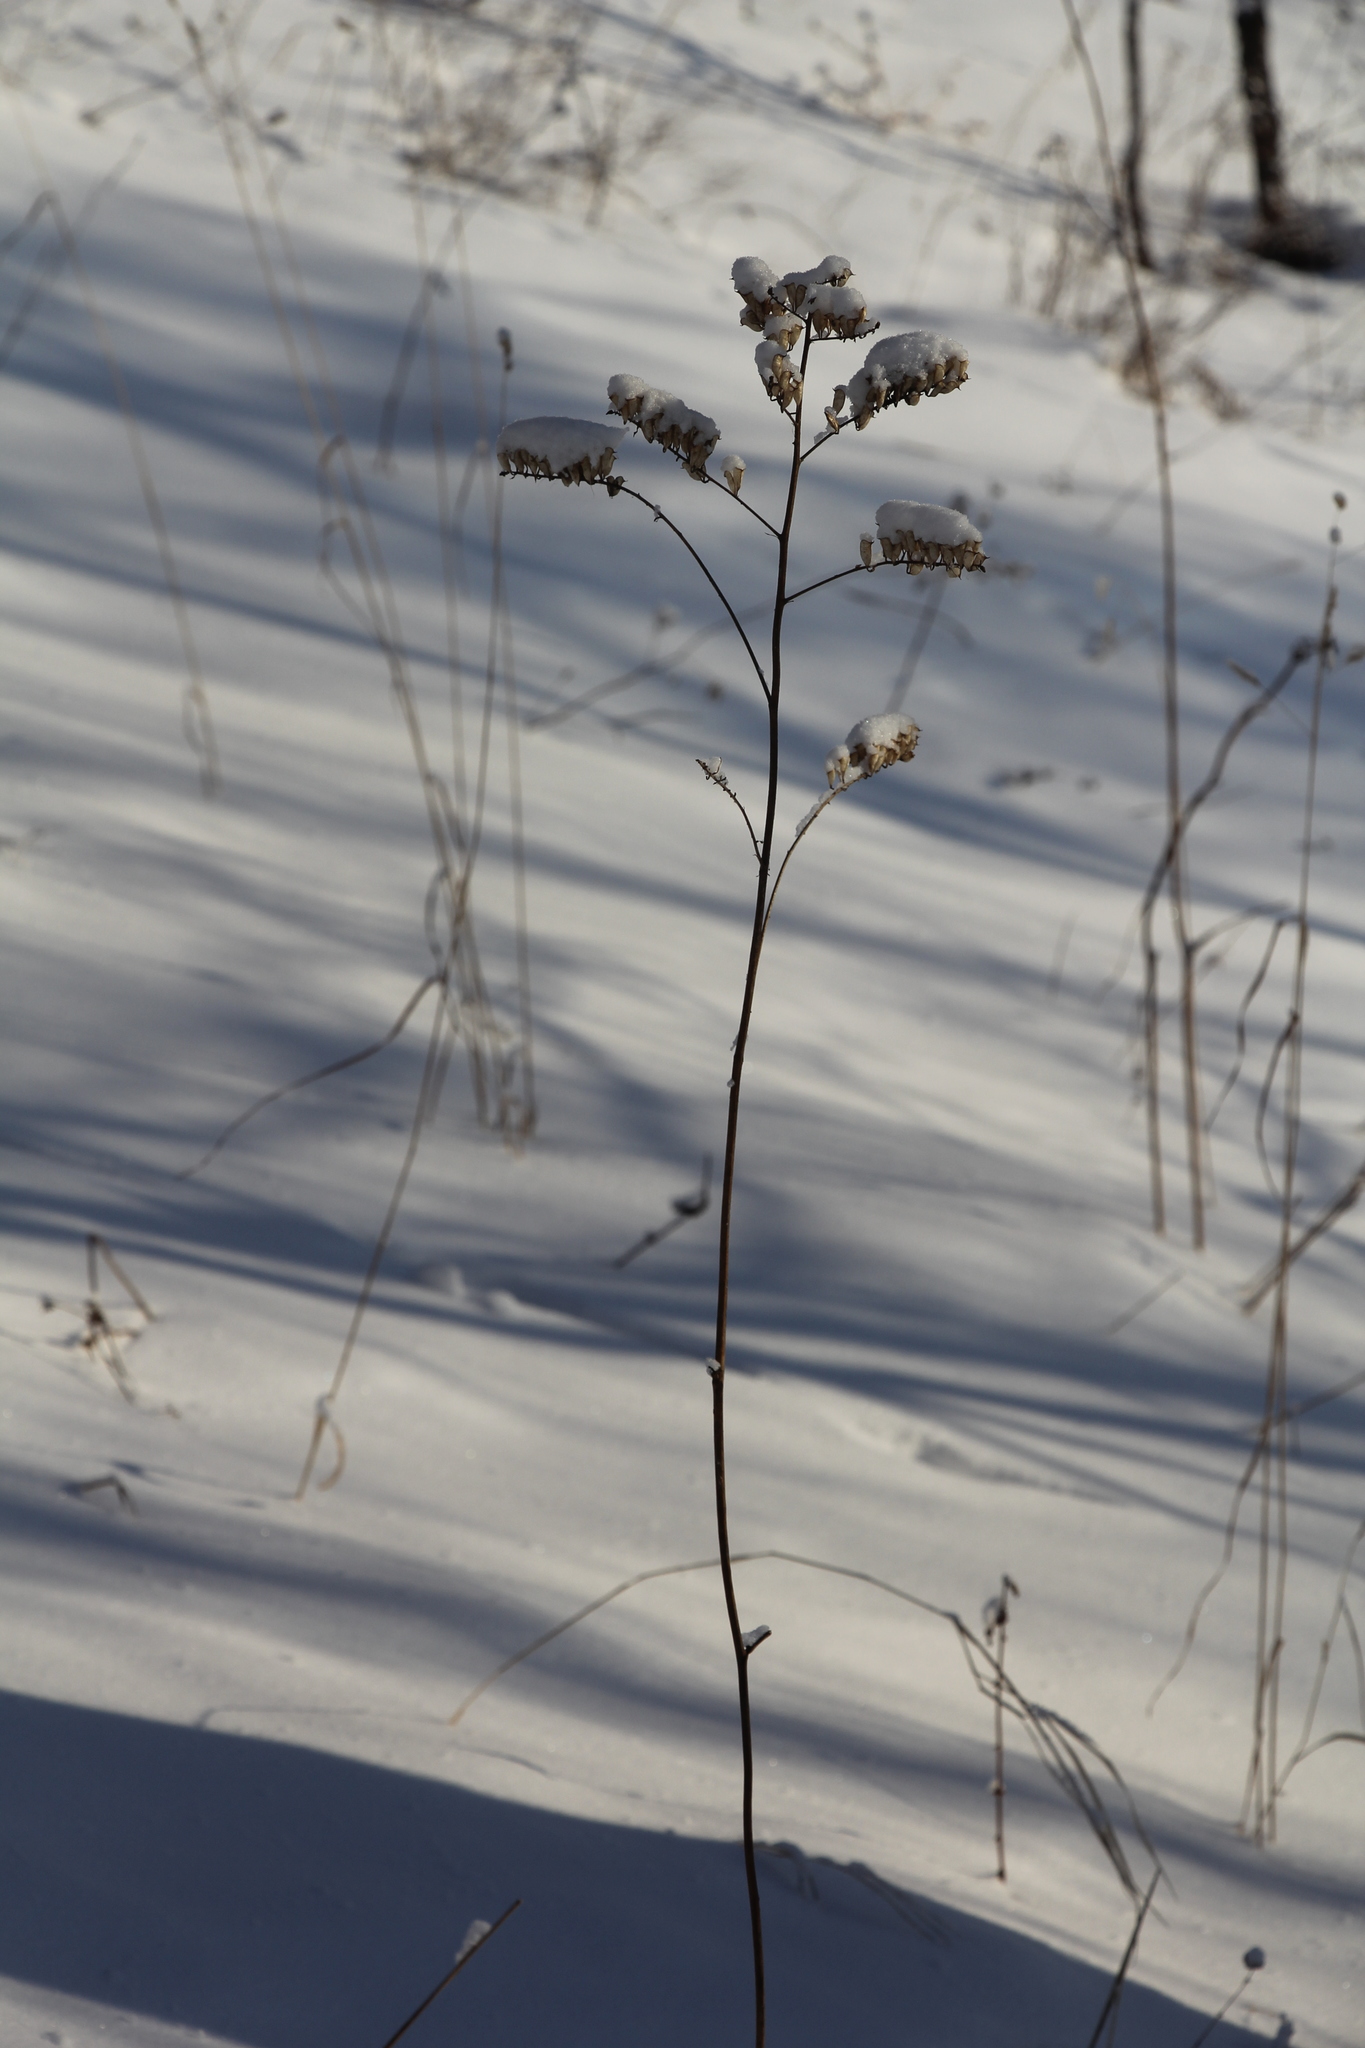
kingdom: Plantae
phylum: Tracheophyta
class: Magnoliopsida
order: Ranunculales
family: Ranunculaceae
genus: Actaea
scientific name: Actaea cimicifuga
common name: Chinese cimicifuga
